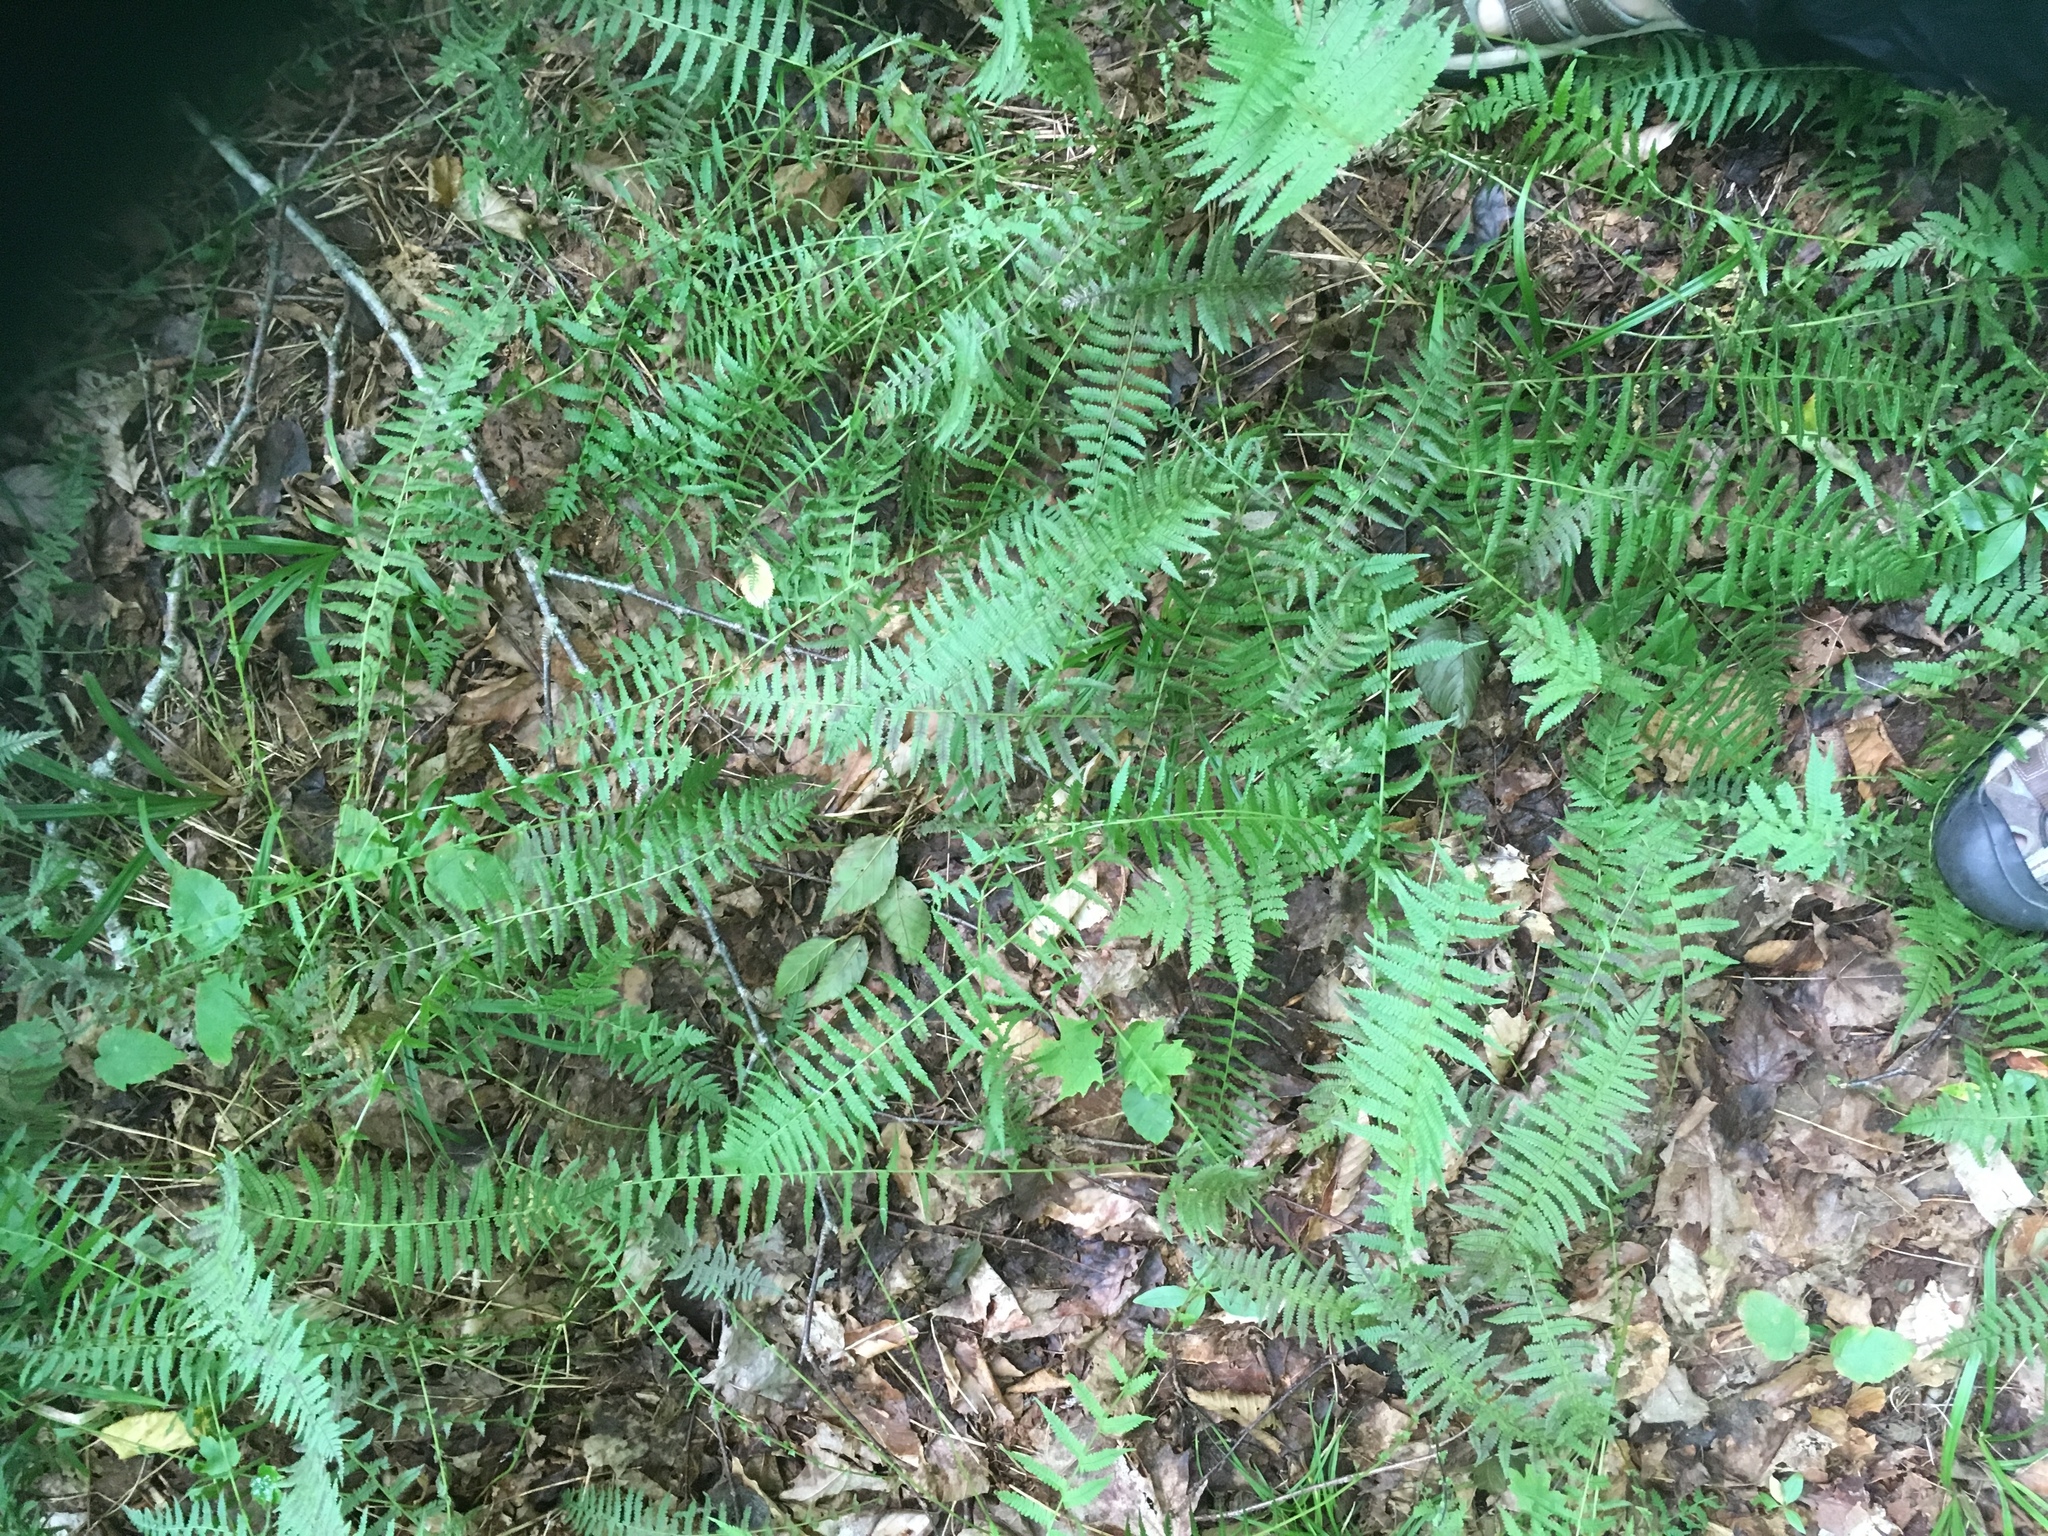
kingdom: Plantae
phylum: Tracheophyta
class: Polypodiopsida
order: Polypodiales
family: Dennstaedtiaceae
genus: Sitobolium
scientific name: Sitobolium punctilobum
